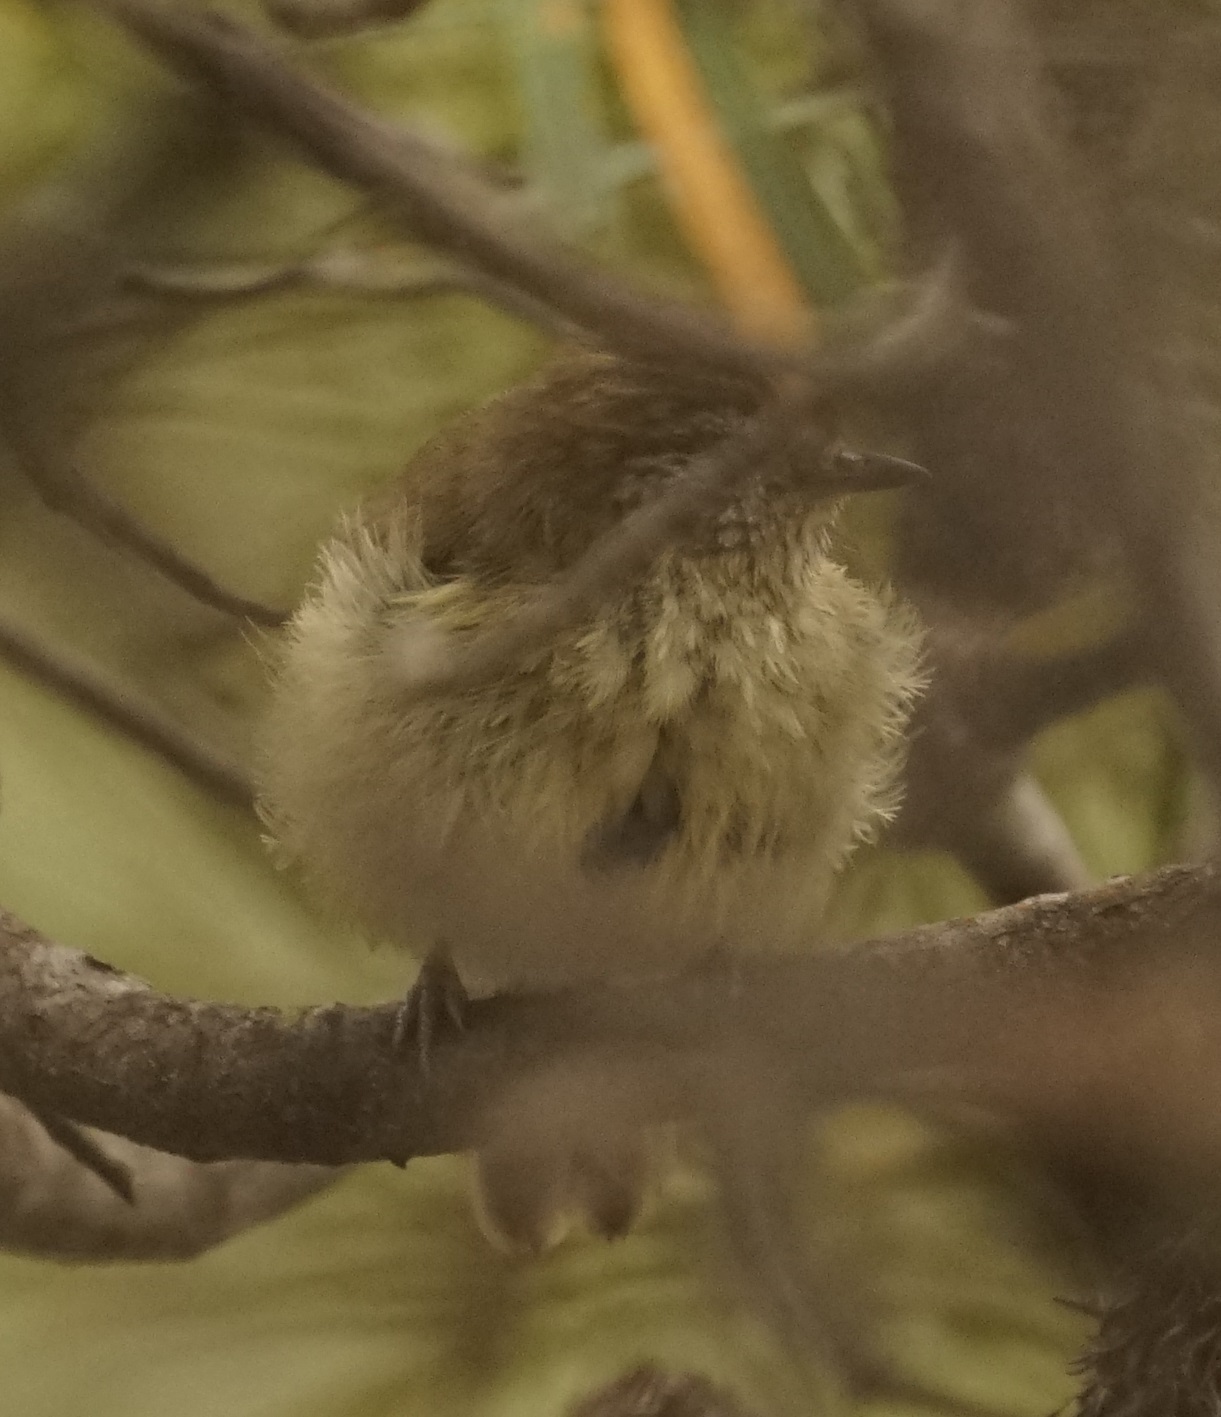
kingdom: Animalia
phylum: Chordata
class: Aves
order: Passeriformes
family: Acanthizidae
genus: Acanthiza
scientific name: Acanthiza lineata
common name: Striated thornbill
